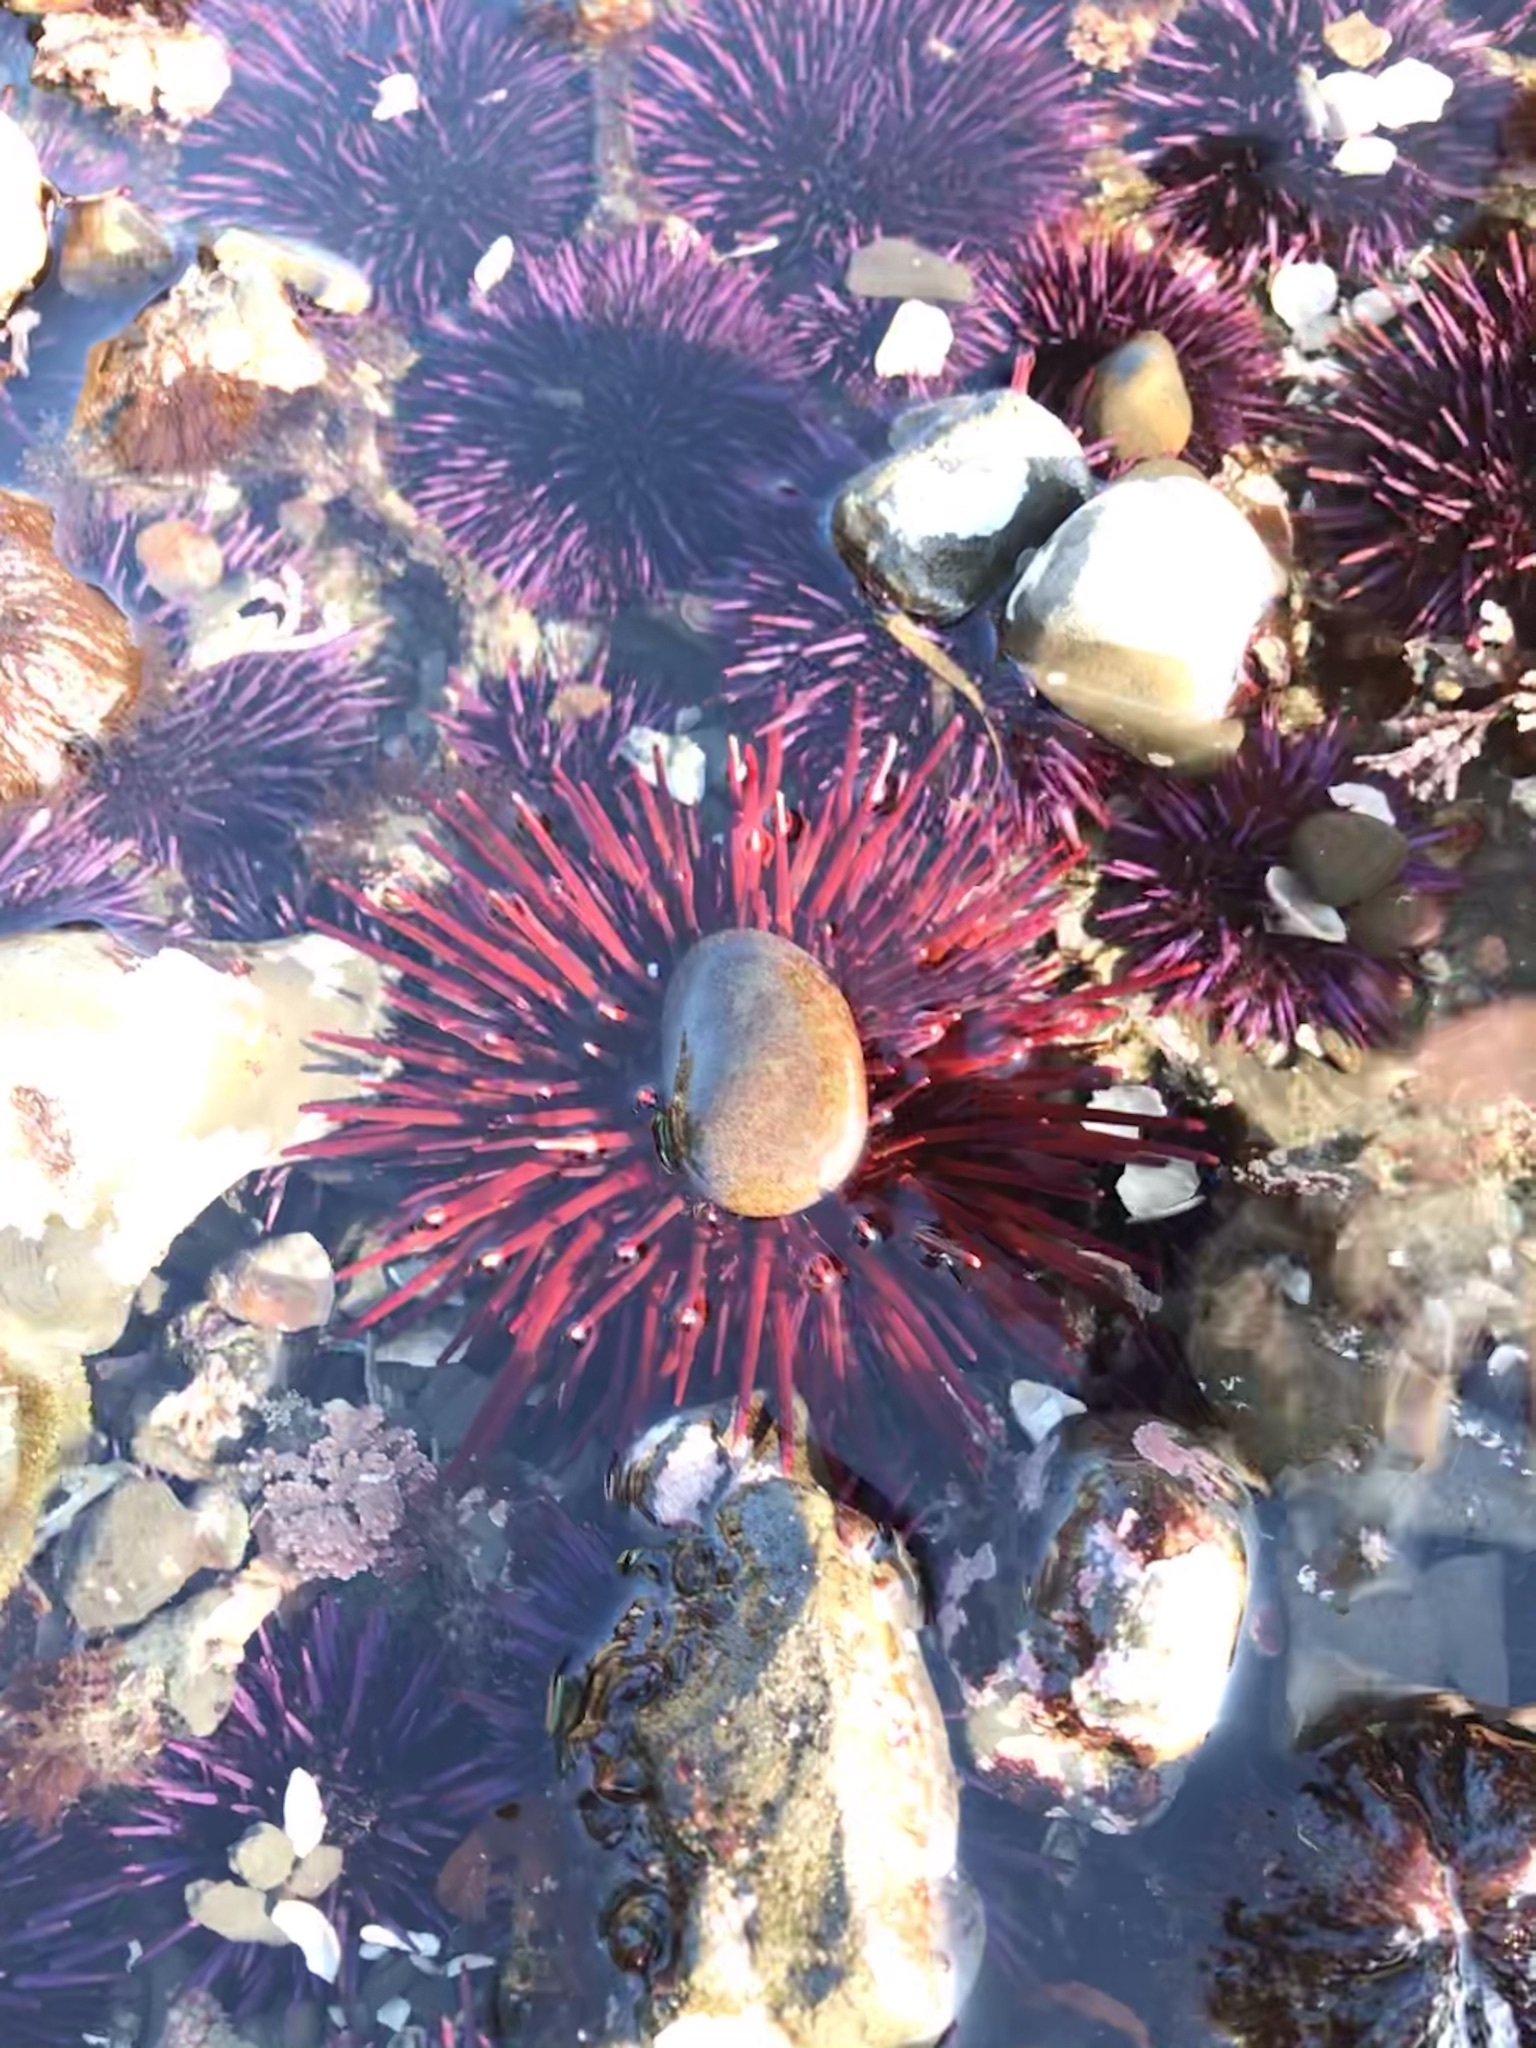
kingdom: Animalia
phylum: Echinodermata
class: Echinoidea
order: Camarodonta
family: Strongylocentrotidae
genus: Mesocentrotus
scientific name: Mesocentrotus franciscanus
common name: Red sea urchin
